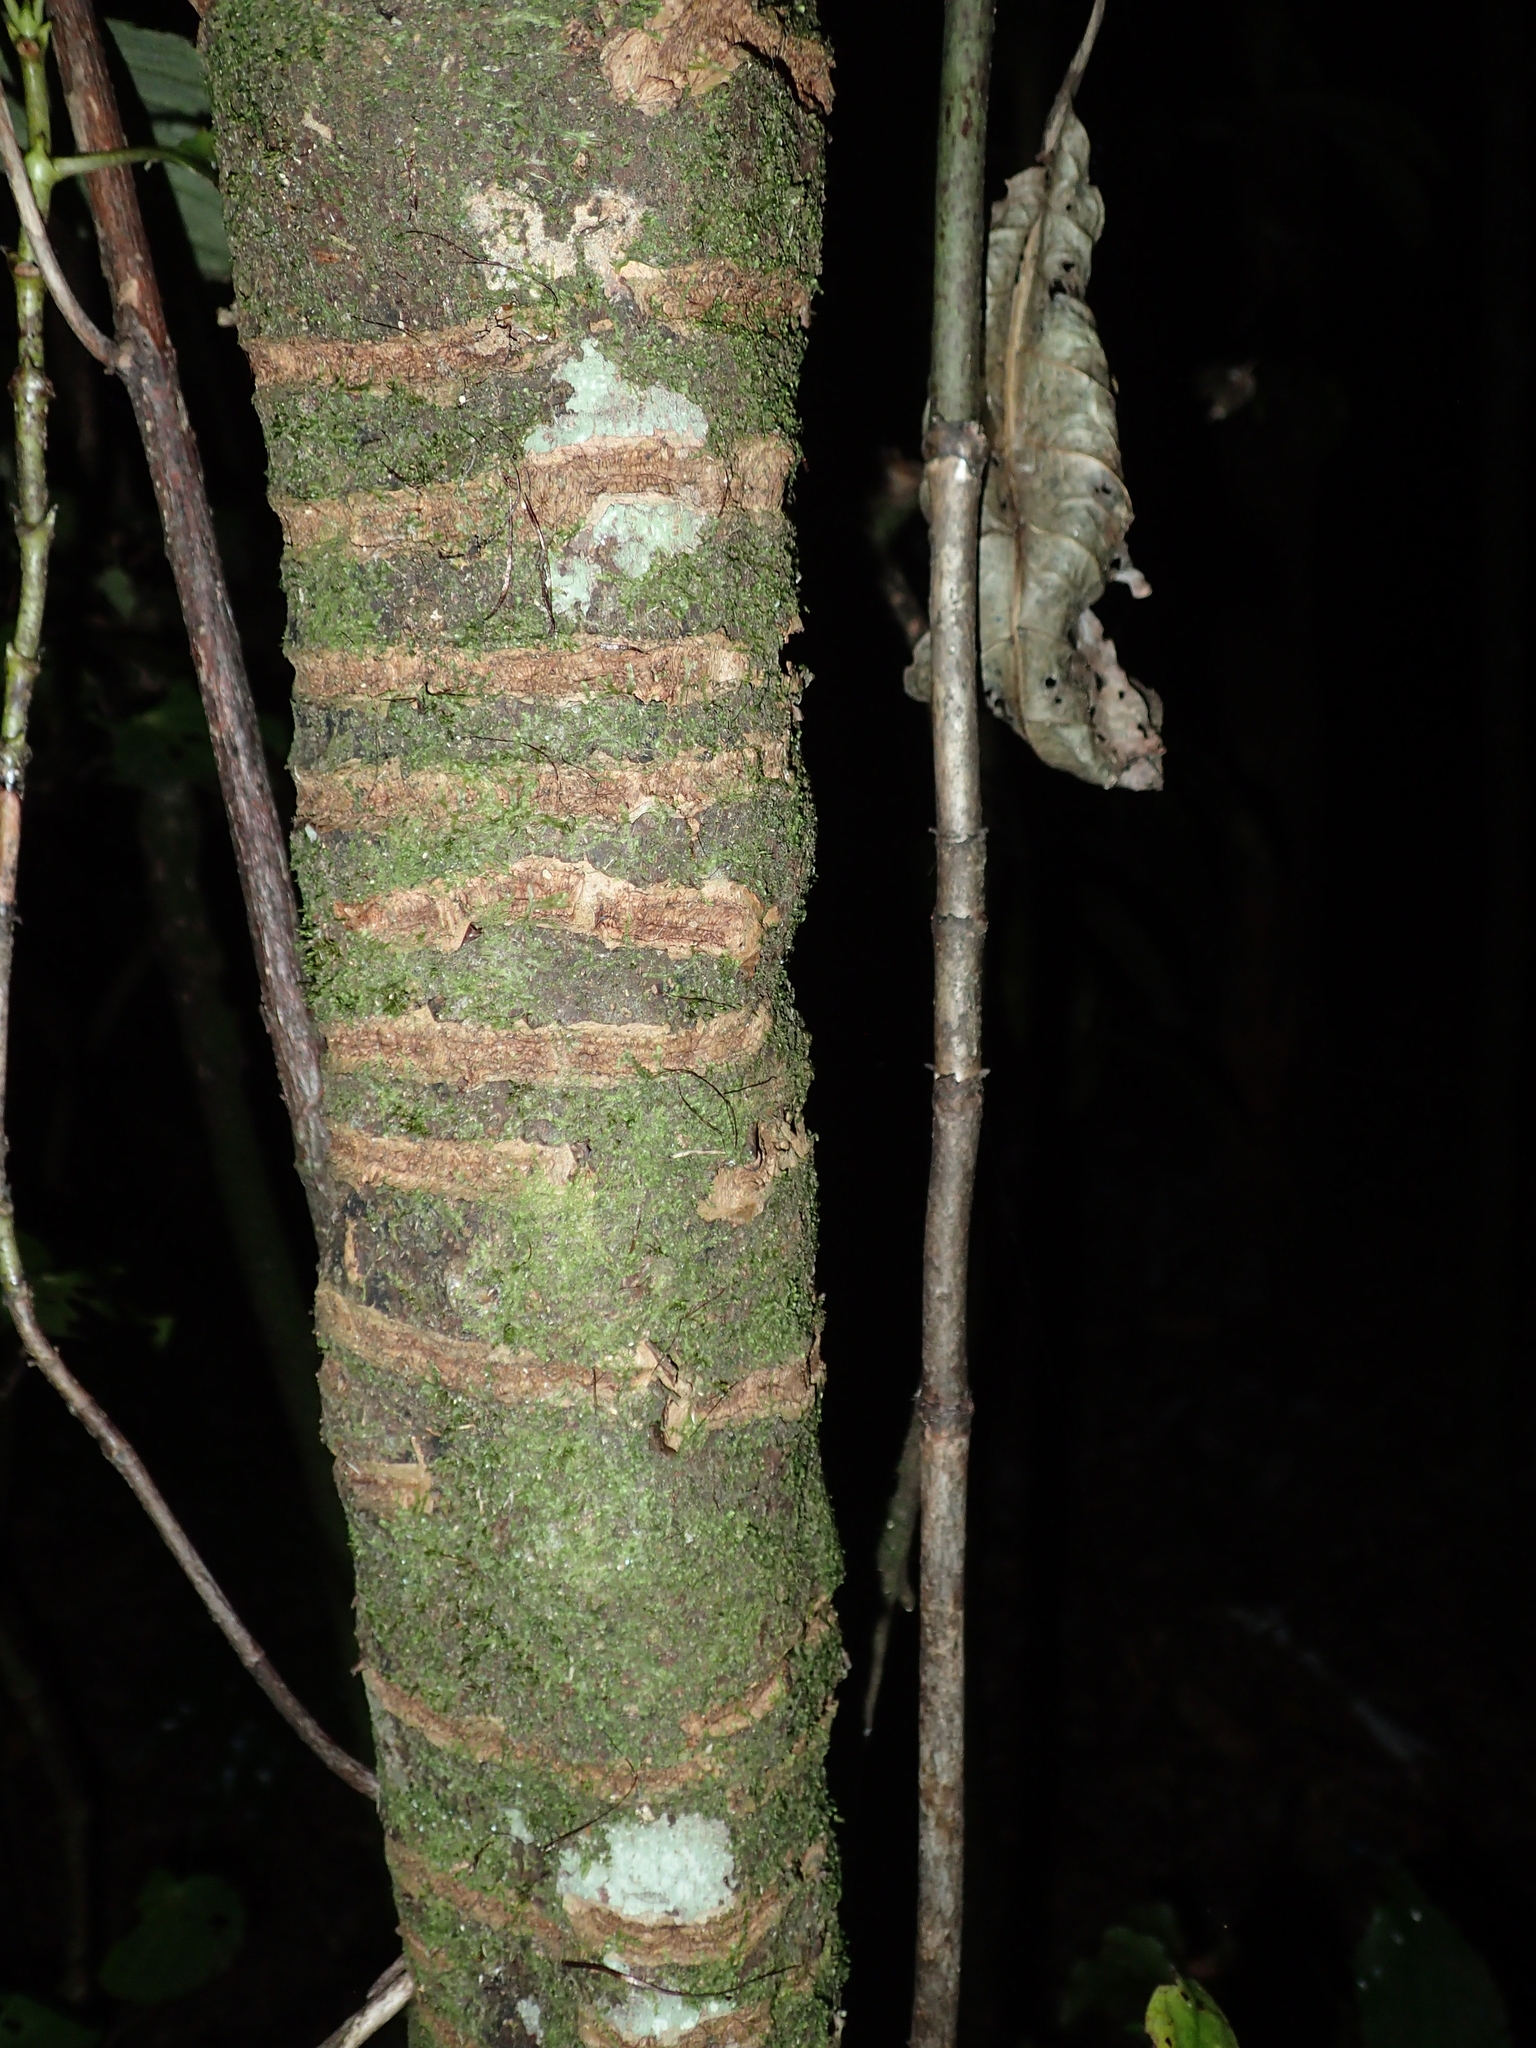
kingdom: Plantae
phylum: Tracheophyta
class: Magnoliopsida
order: Gentianales
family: Rubiaceae
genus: Coprosma
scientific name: Coprosma autumnalis
